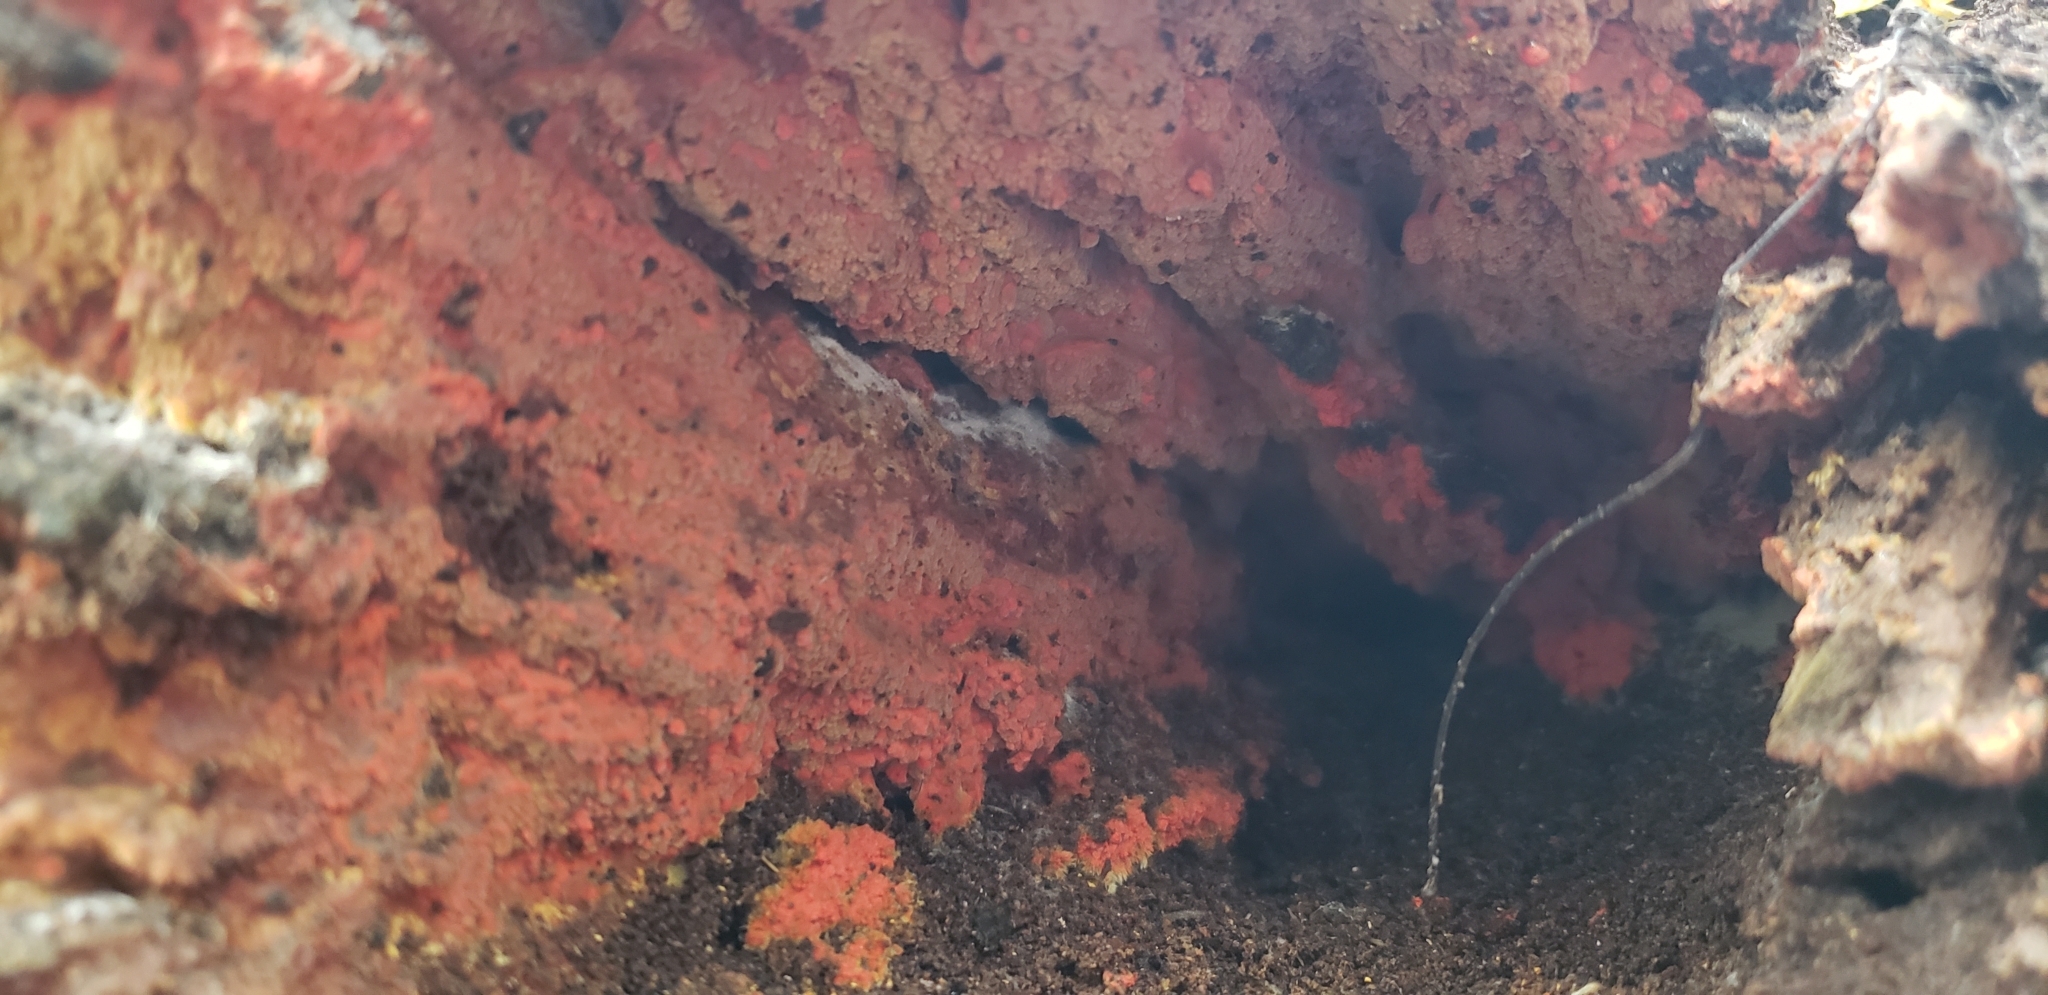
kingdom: Fungi
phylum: Basidiomycota
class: Agaricomycetes
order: Polyporales
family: Meruliaceae
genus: Phlebia
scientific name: Phlebia coccineofulva
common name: Scarlet waxcrust
